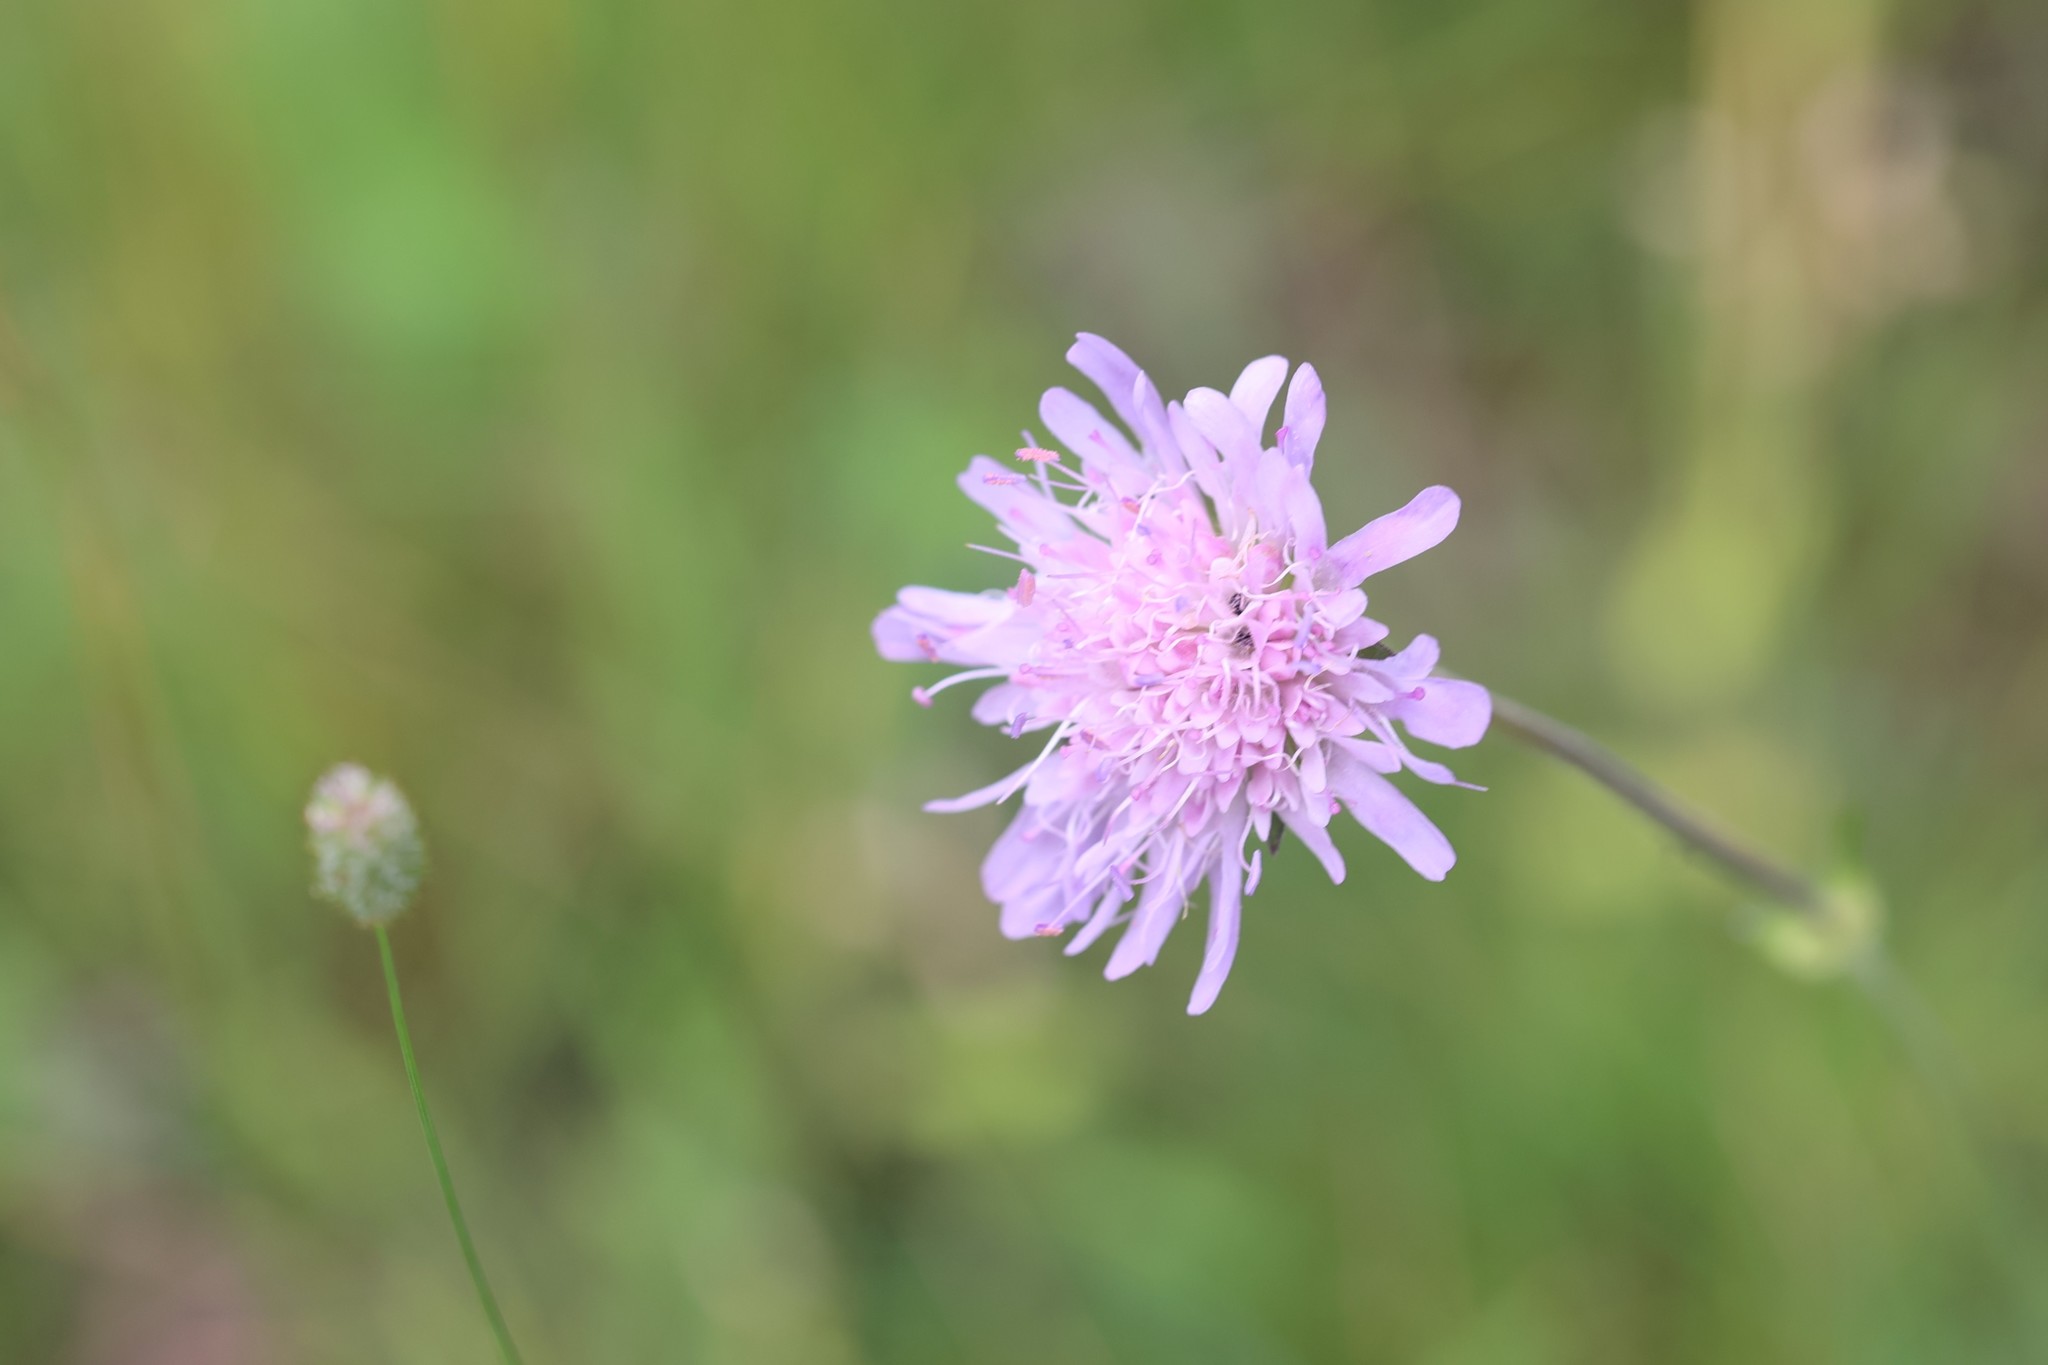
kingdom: Plantae
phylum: Tracheophyta
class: Magnoliopsida
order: Dipsacales
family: Caprifoliaceae
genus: Knautia
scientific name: Knautia arvensis
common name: Field scabiosa
